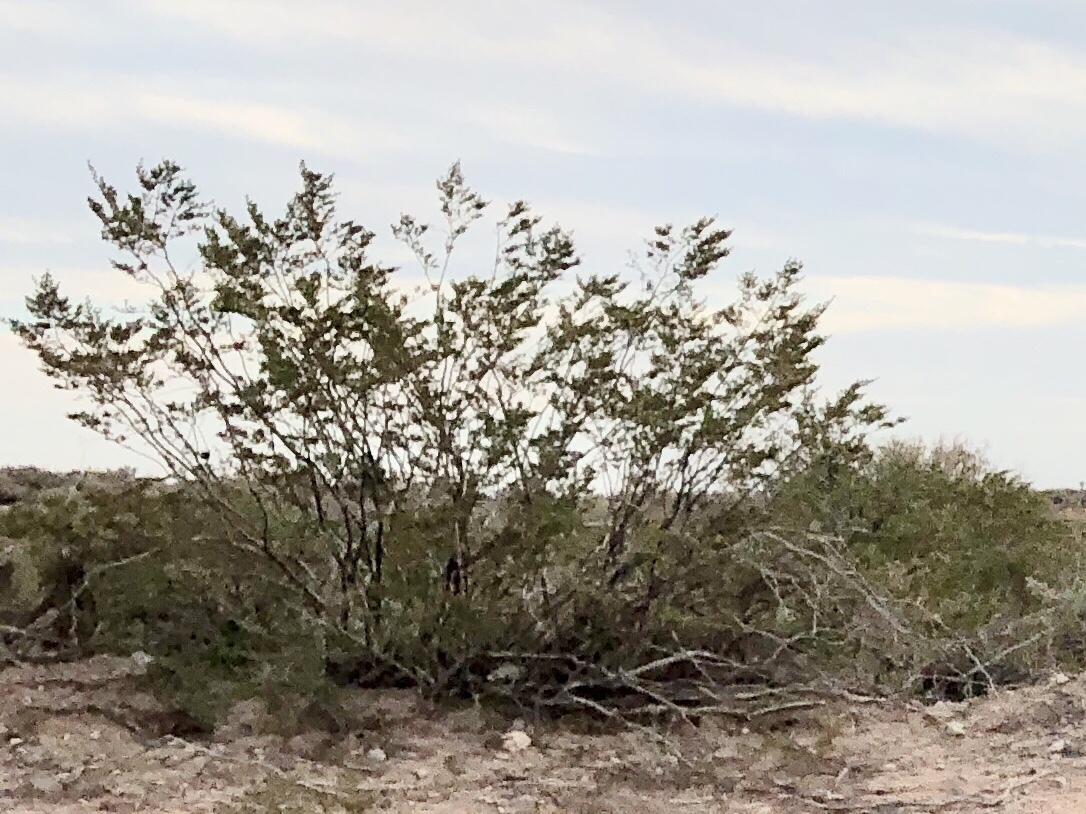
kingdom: Plantae
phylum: Tracheophyta
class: Magnoliopsida
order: Zygophyllales
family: Zygophyllaceae
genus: Larrea
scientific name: Larrea tridentata
